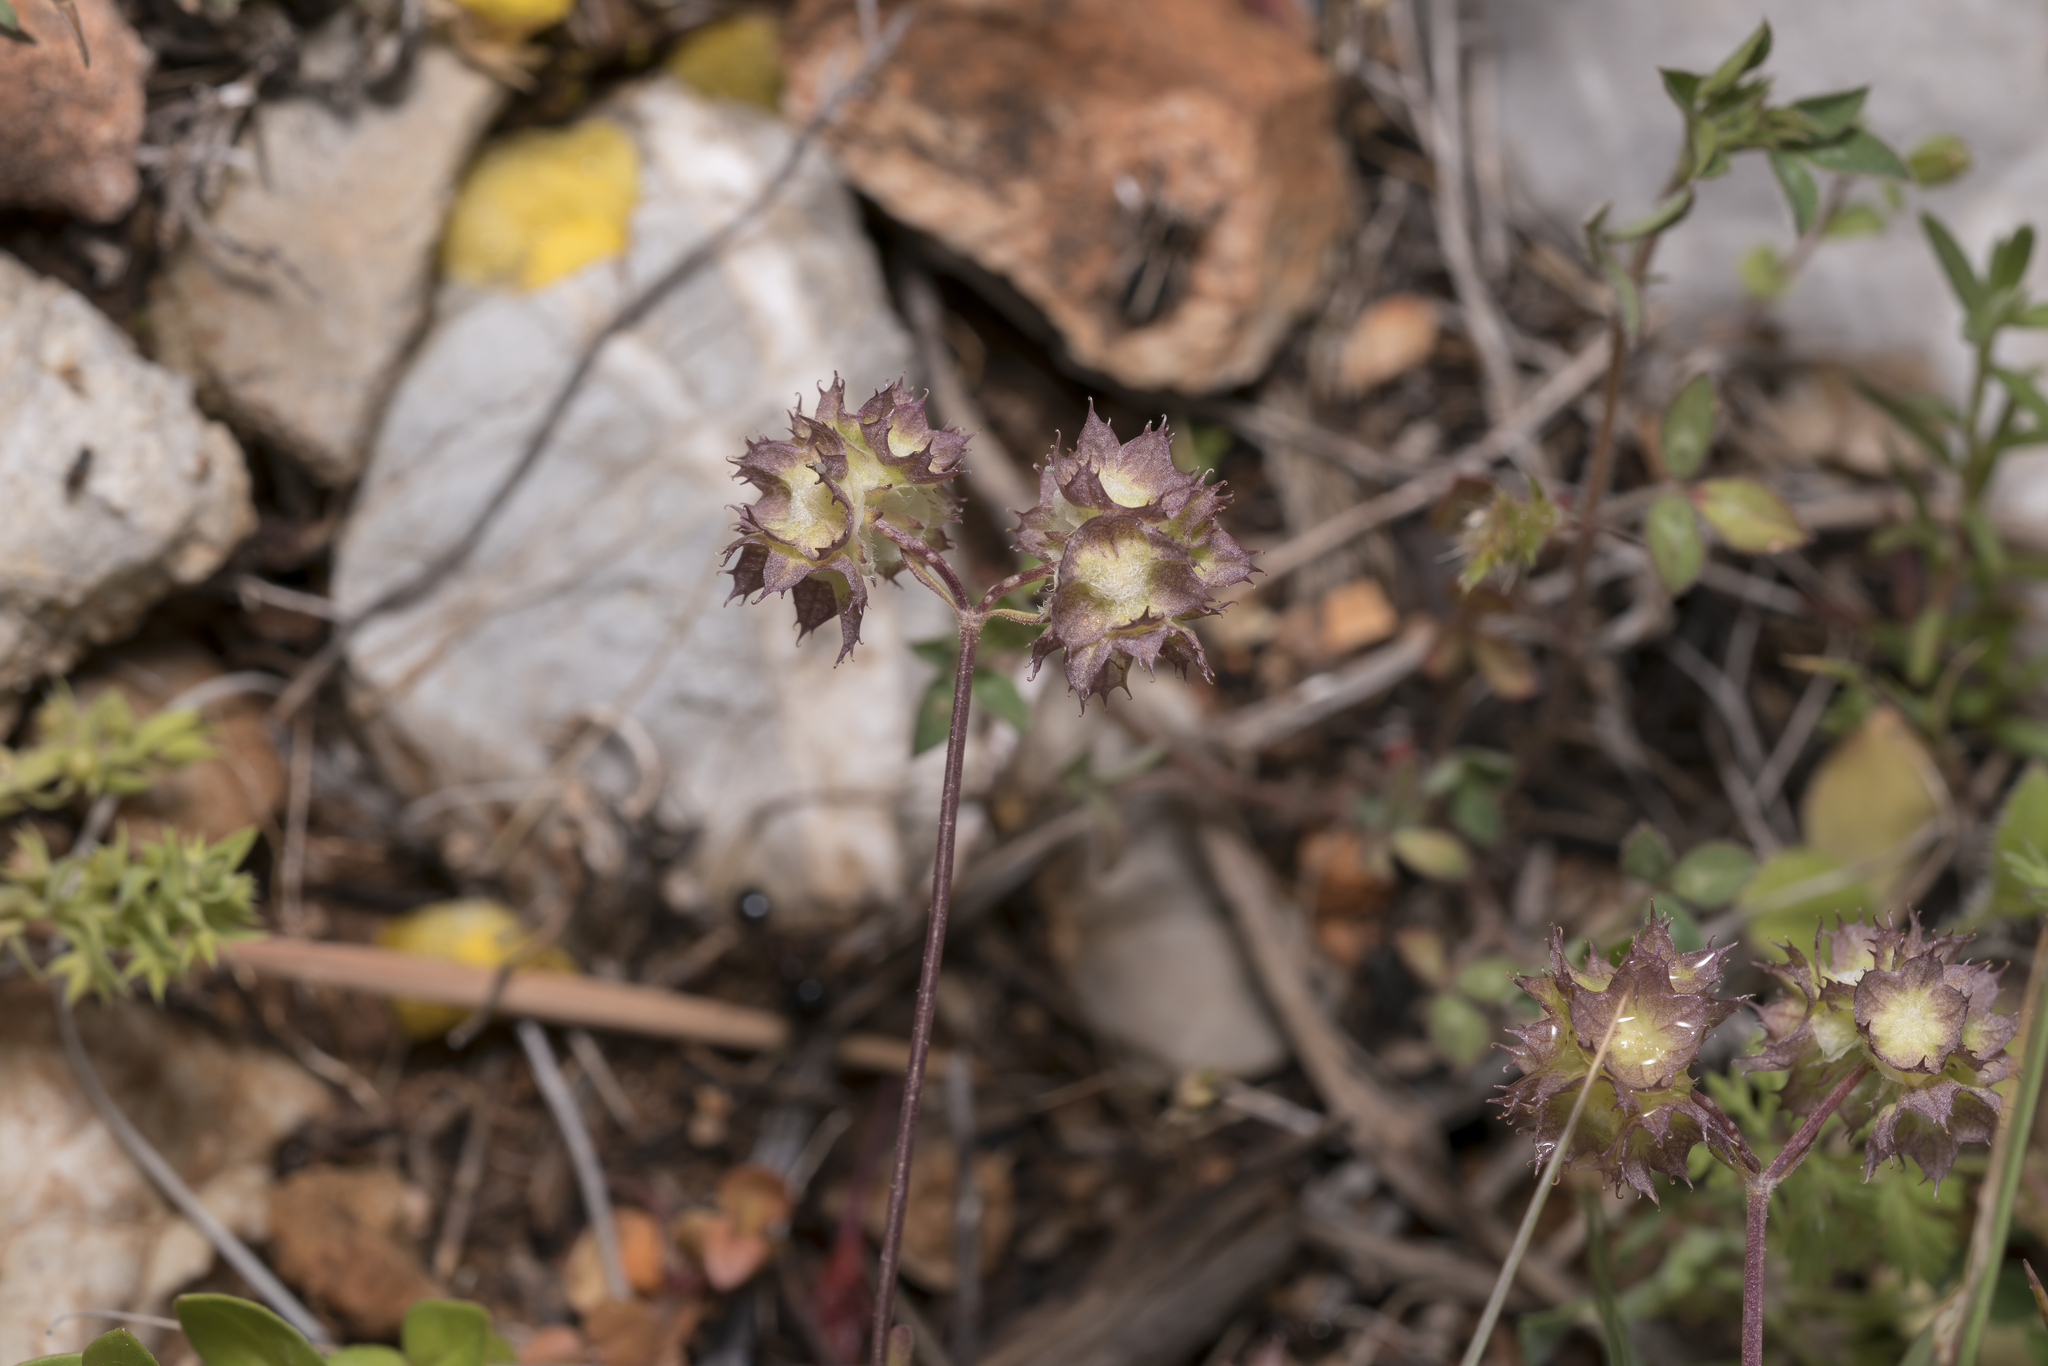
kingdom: Plantae
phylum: Tracheophyta
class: Magnoliopsida
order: Dipsacales
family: Caprifoliaceae
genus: Valerianella
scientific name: Valerianella obtusiloba
